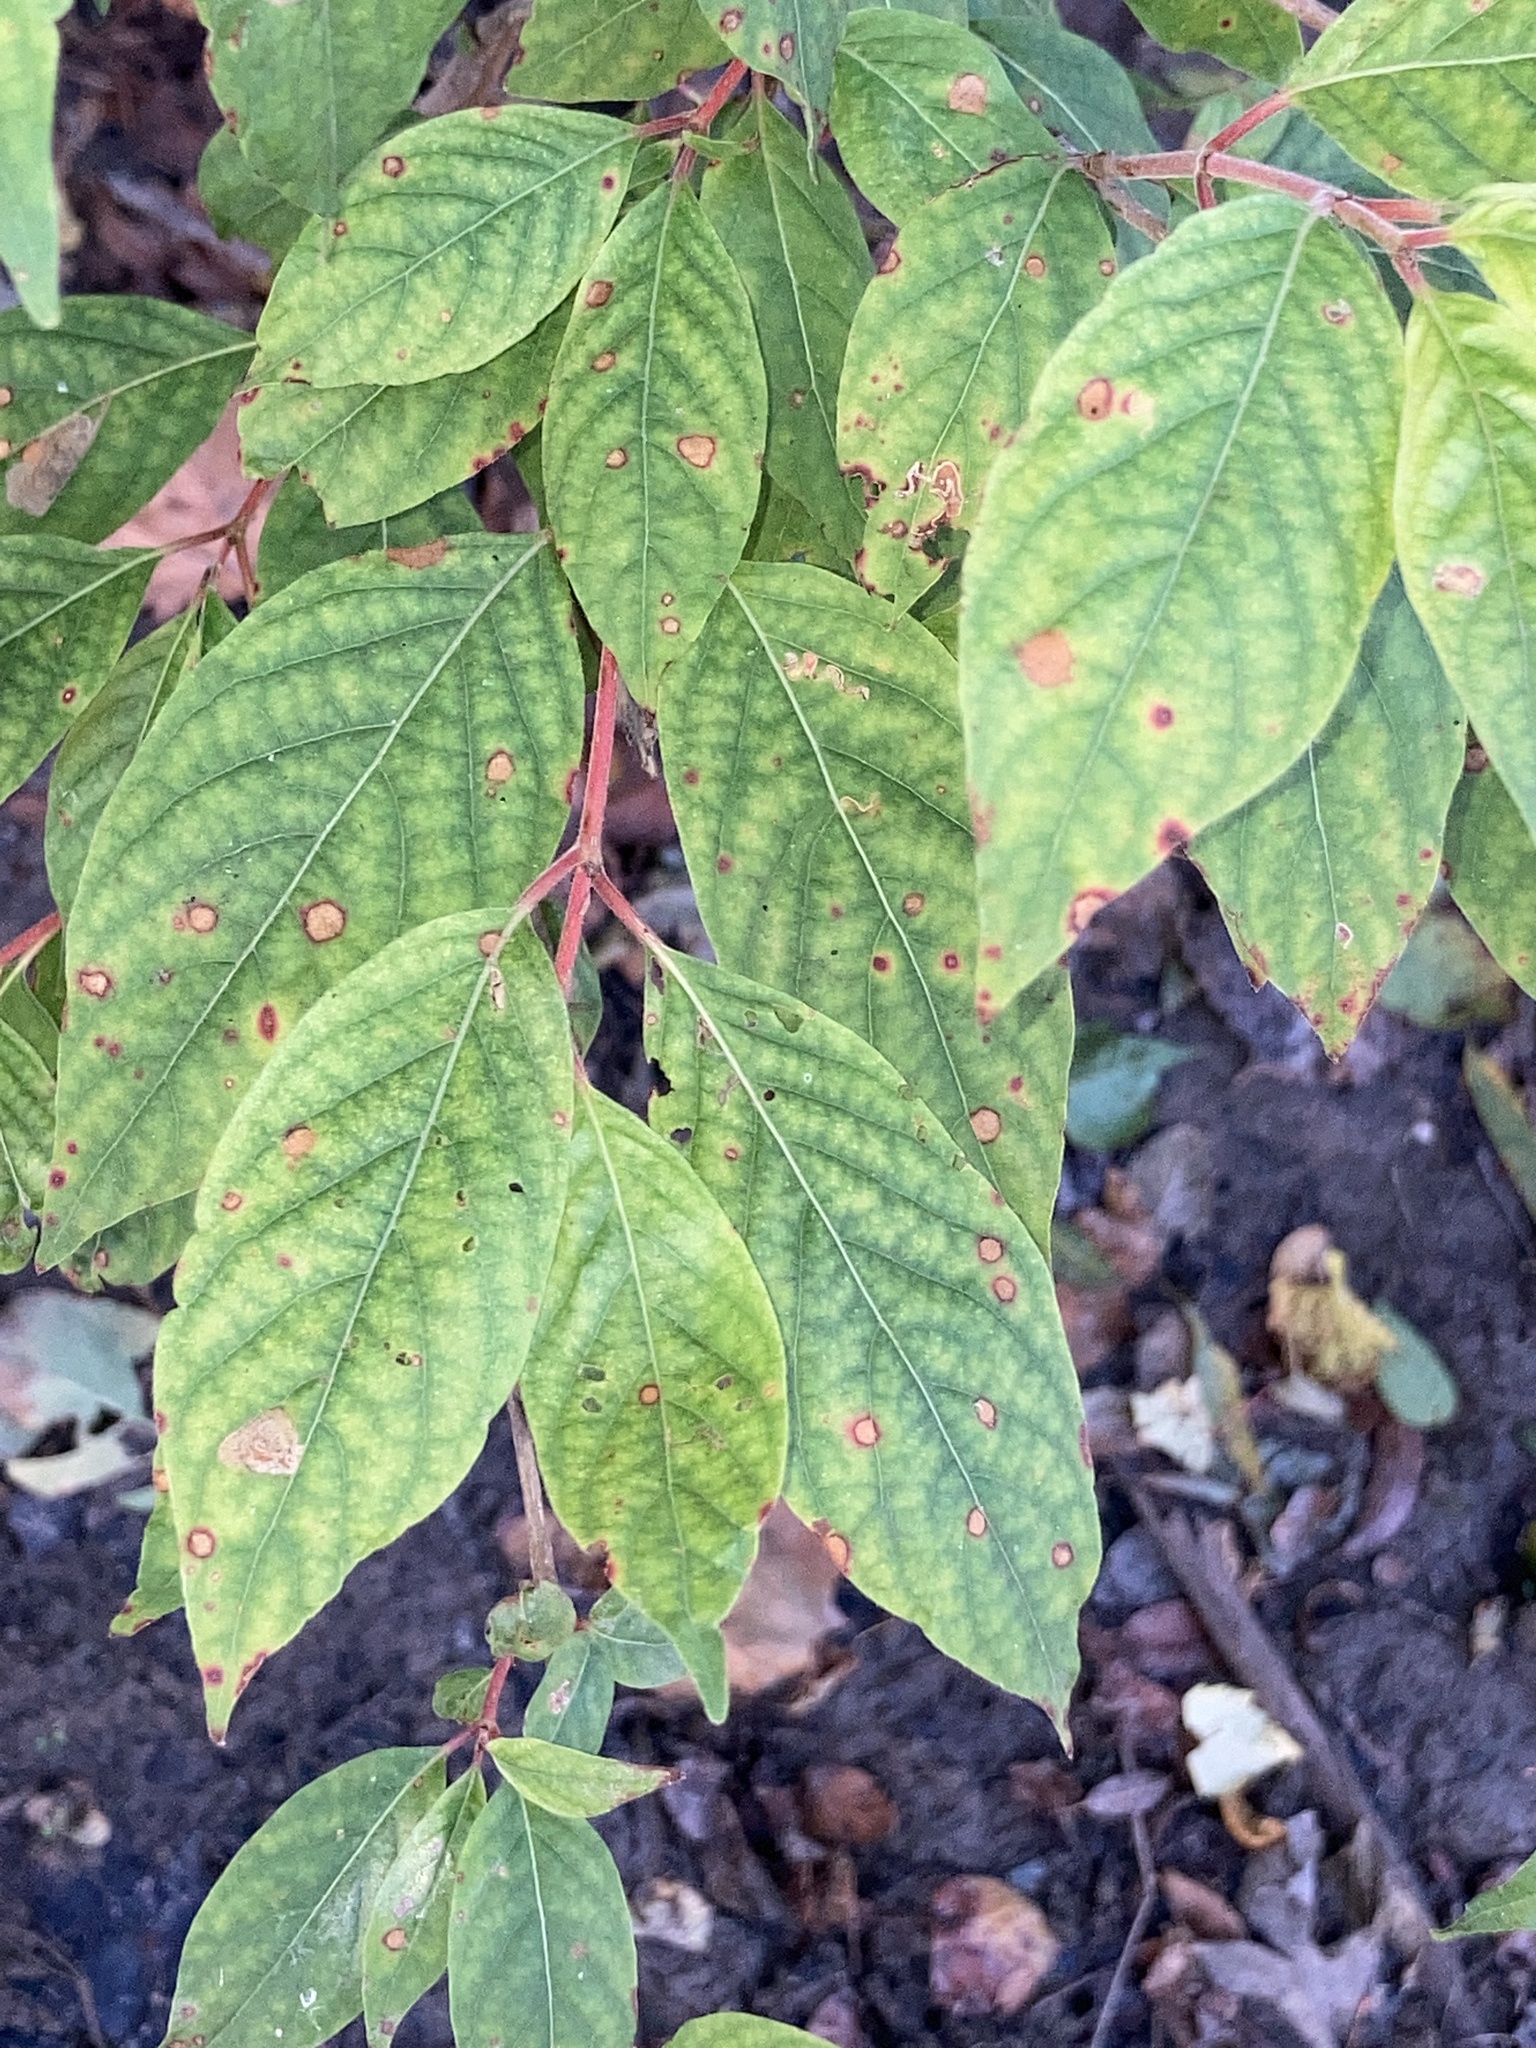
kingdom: Plantae
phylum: Tracheophyta
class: Magnoliopsida
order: Gentianales
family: Rubiaceae
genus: Cephalanthus
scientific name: Cephalanthus occidentalis
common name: Button-willow
